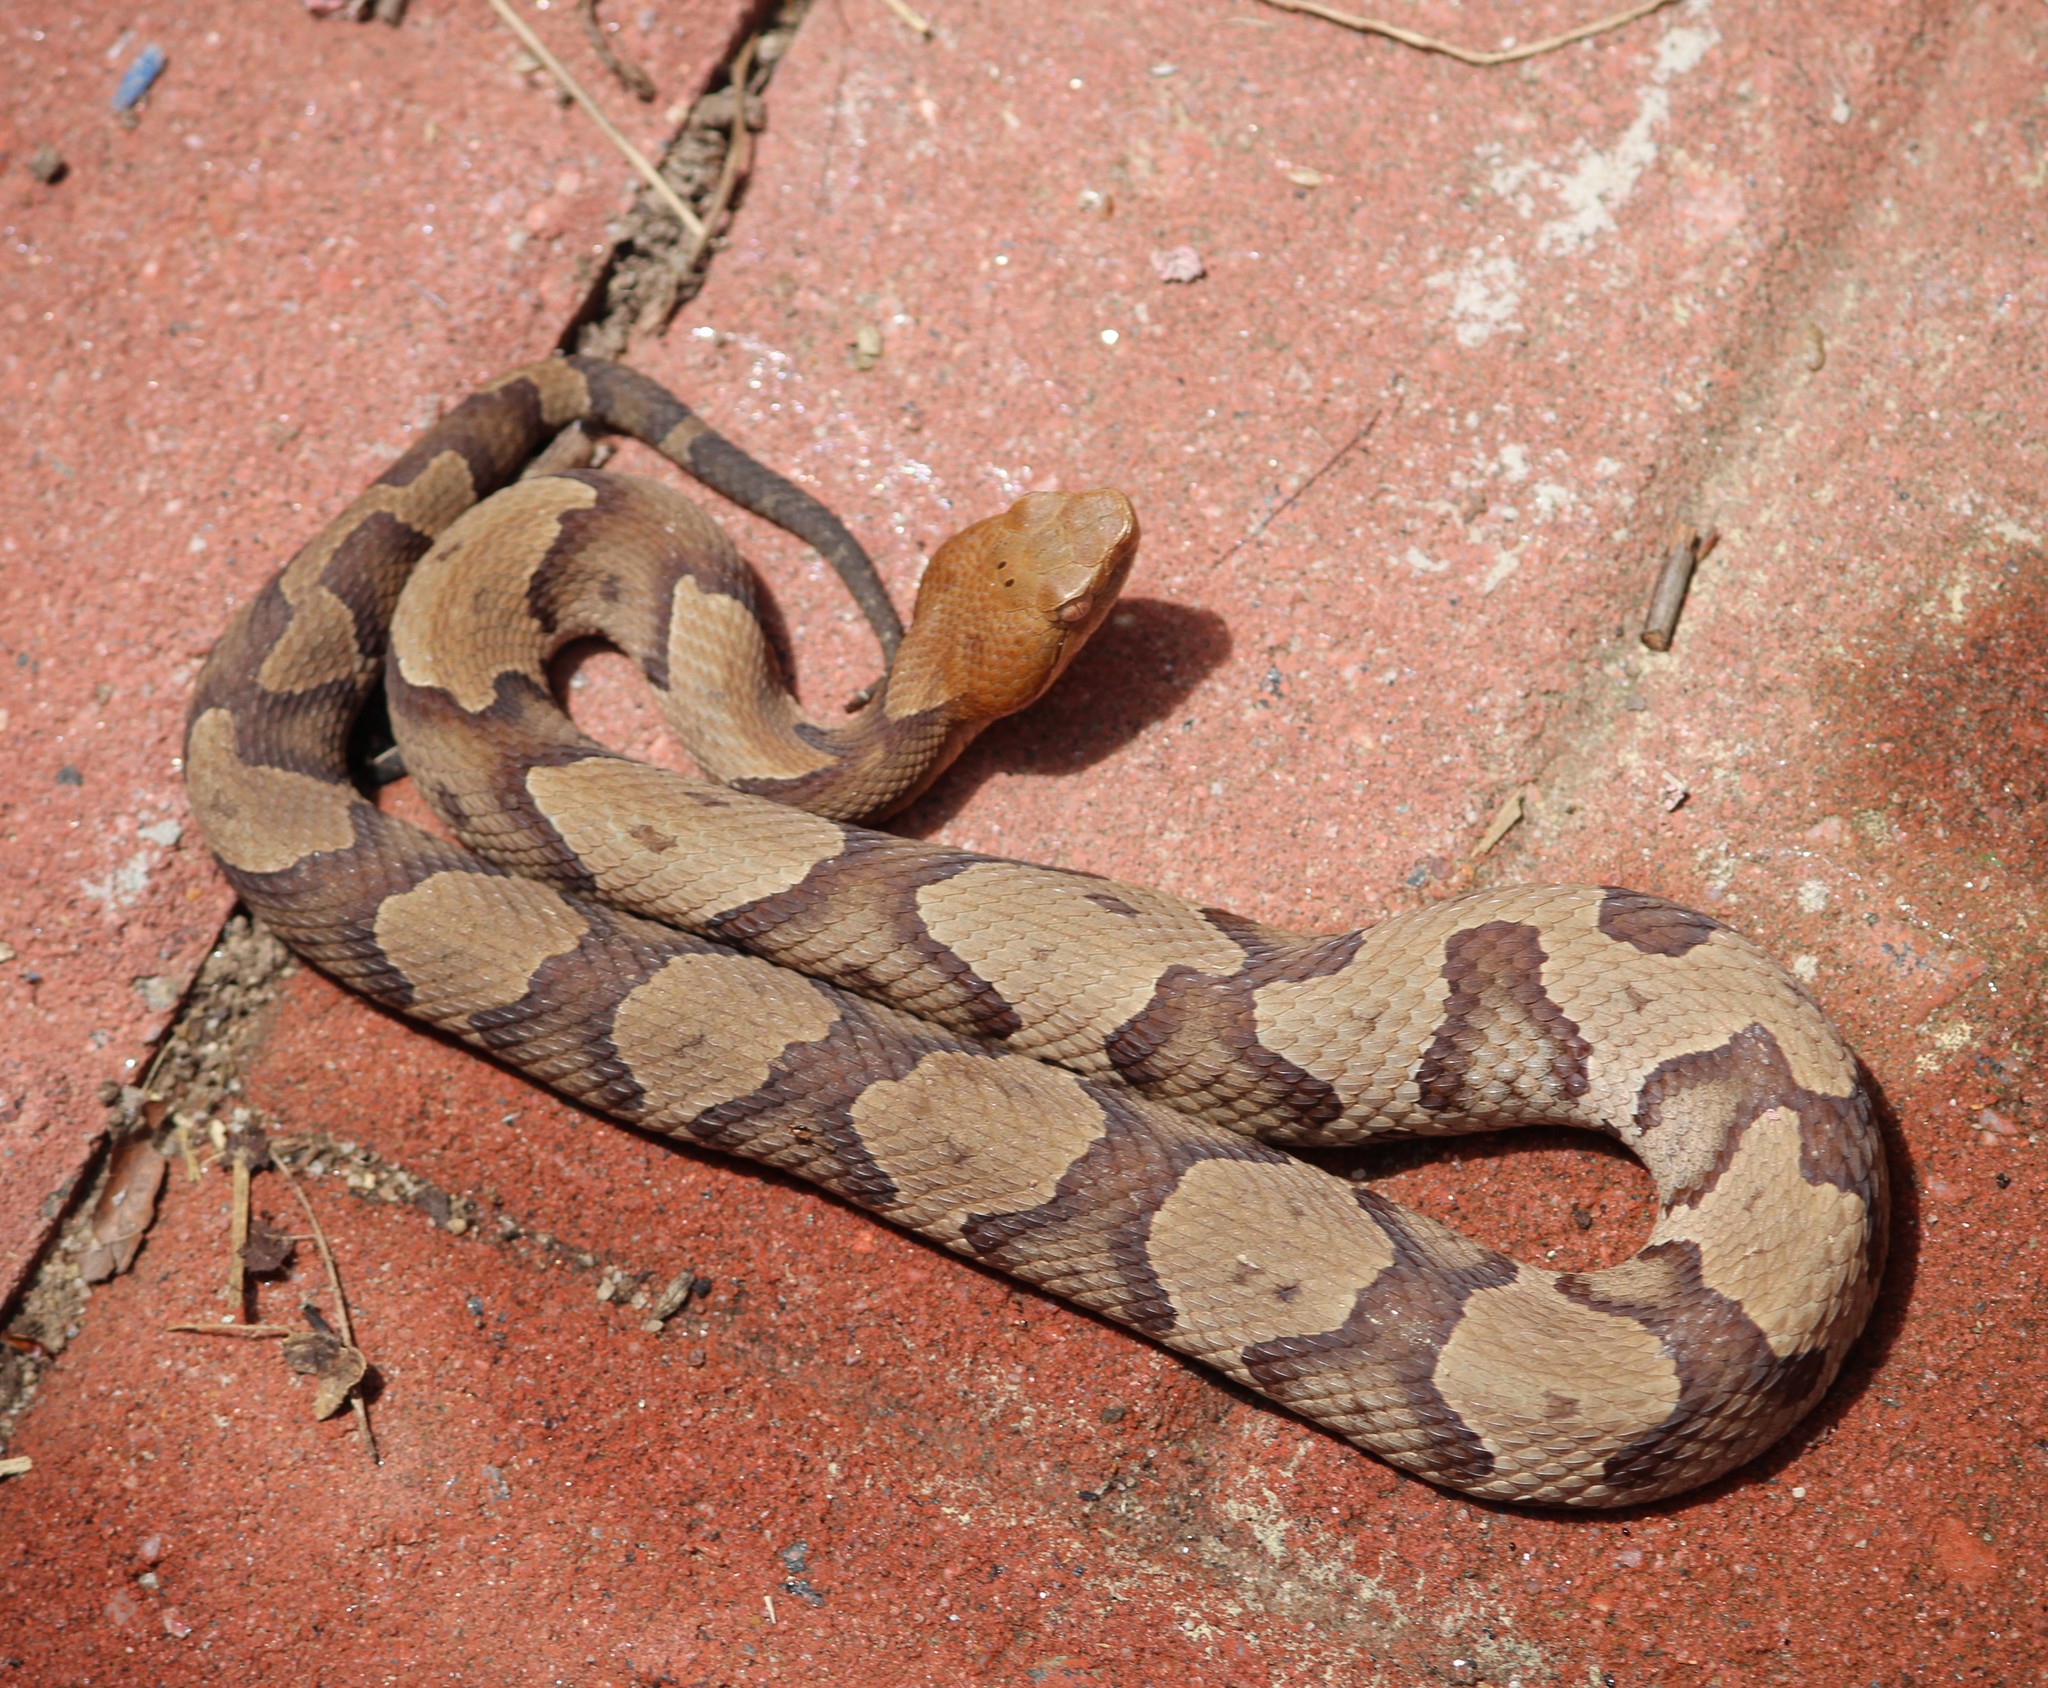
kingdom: Animalia
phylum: Chordata
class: Squamata
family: Viperidae
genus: Agkistrodon
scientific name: Agkistrodon contortrix
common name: Northern copperhead
